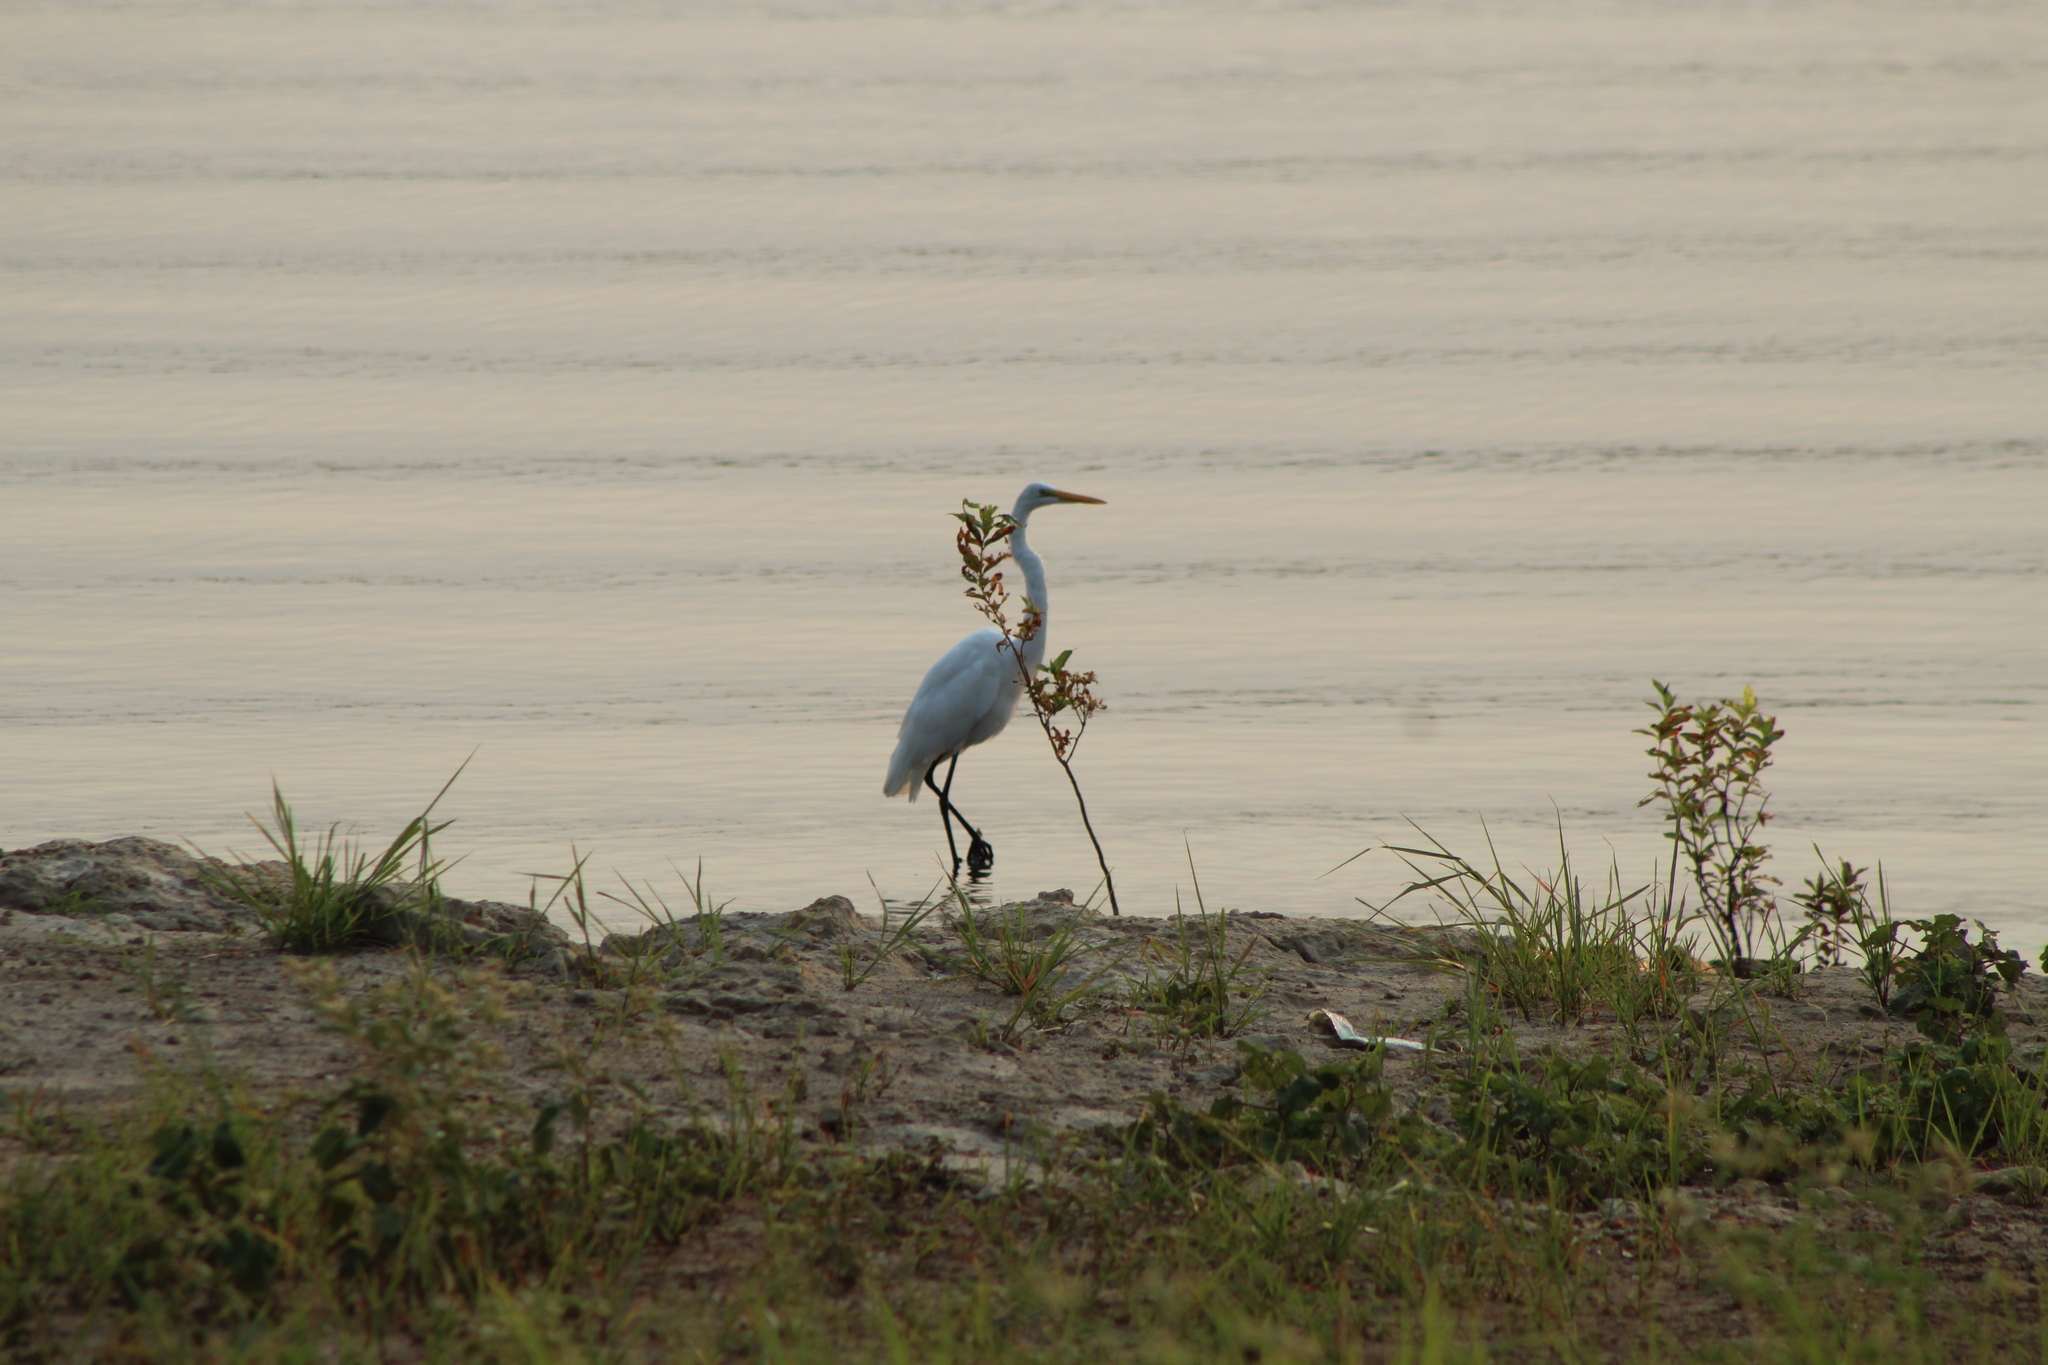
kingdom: Animalia
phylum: Chordata
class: Aves
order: Pelecaniformes
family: Ardeidae
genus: Ardea
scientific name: Ardea alba
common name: Great egret
